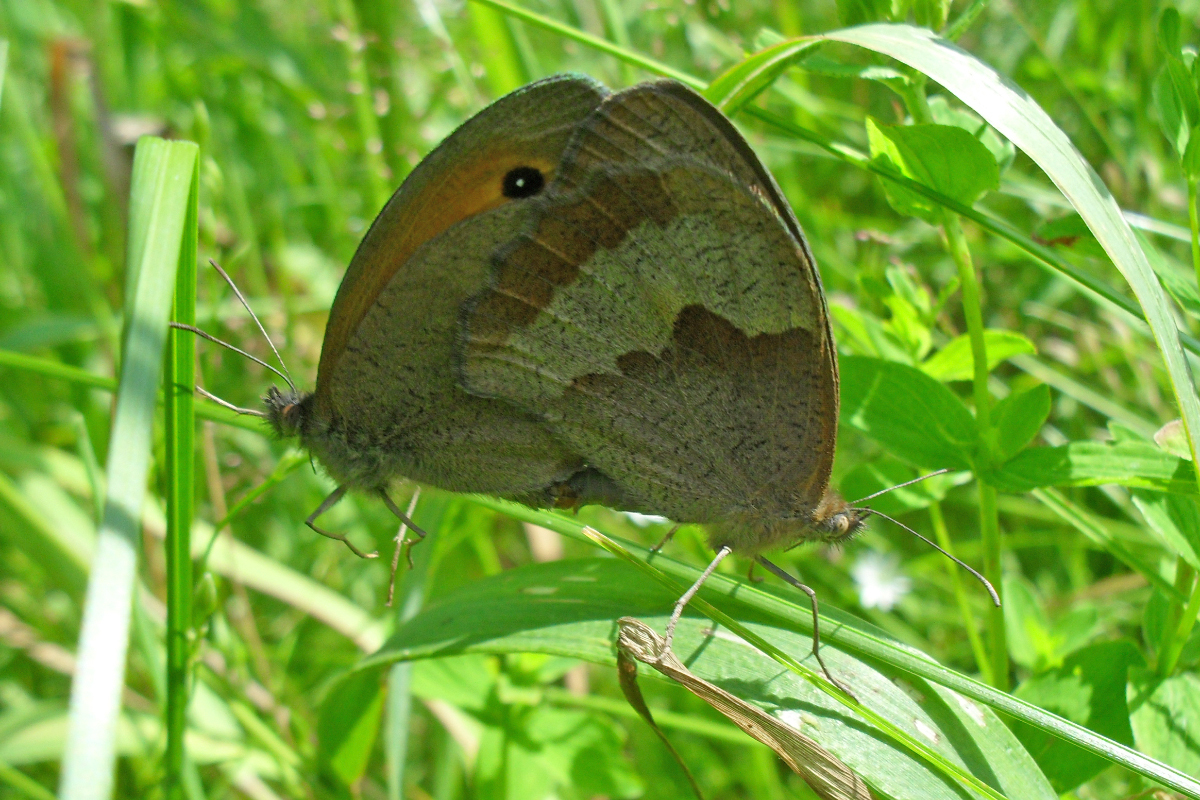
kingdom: Animalia
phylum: Arthropoda
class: Insecta
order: Lepidoptera
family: Nymphalidae
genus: Maniola
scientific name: Maniola jurtina
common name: Meadow brown
